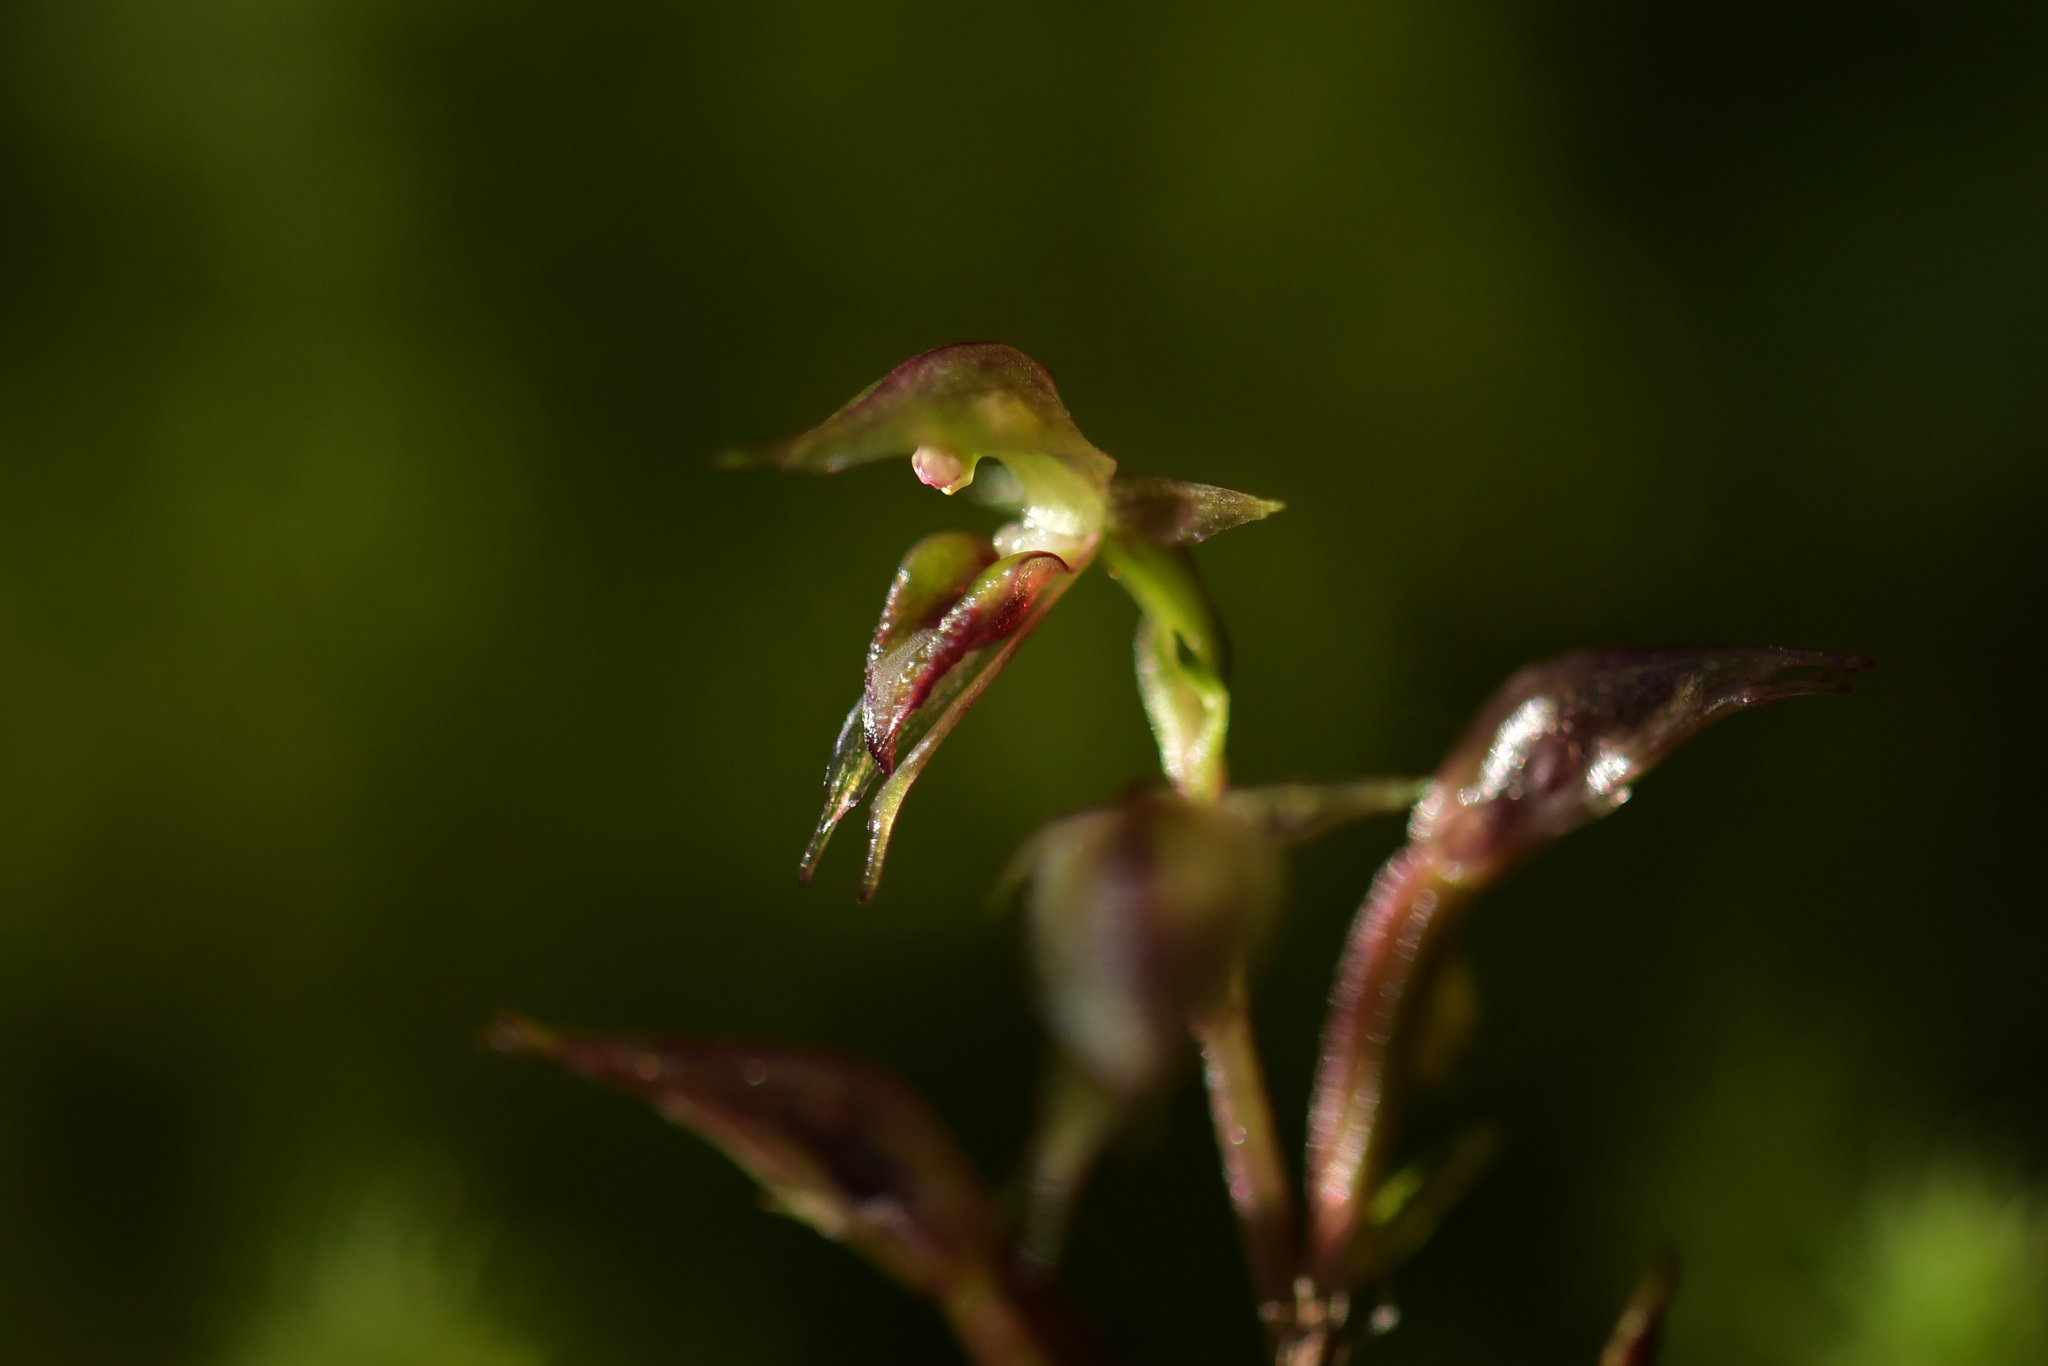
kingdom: Plantae
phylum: Tracheophyta
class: Liliopsida
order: Asparagales
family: Orchidaceae
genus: Acianthus
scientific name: Acianthus sinclairii
